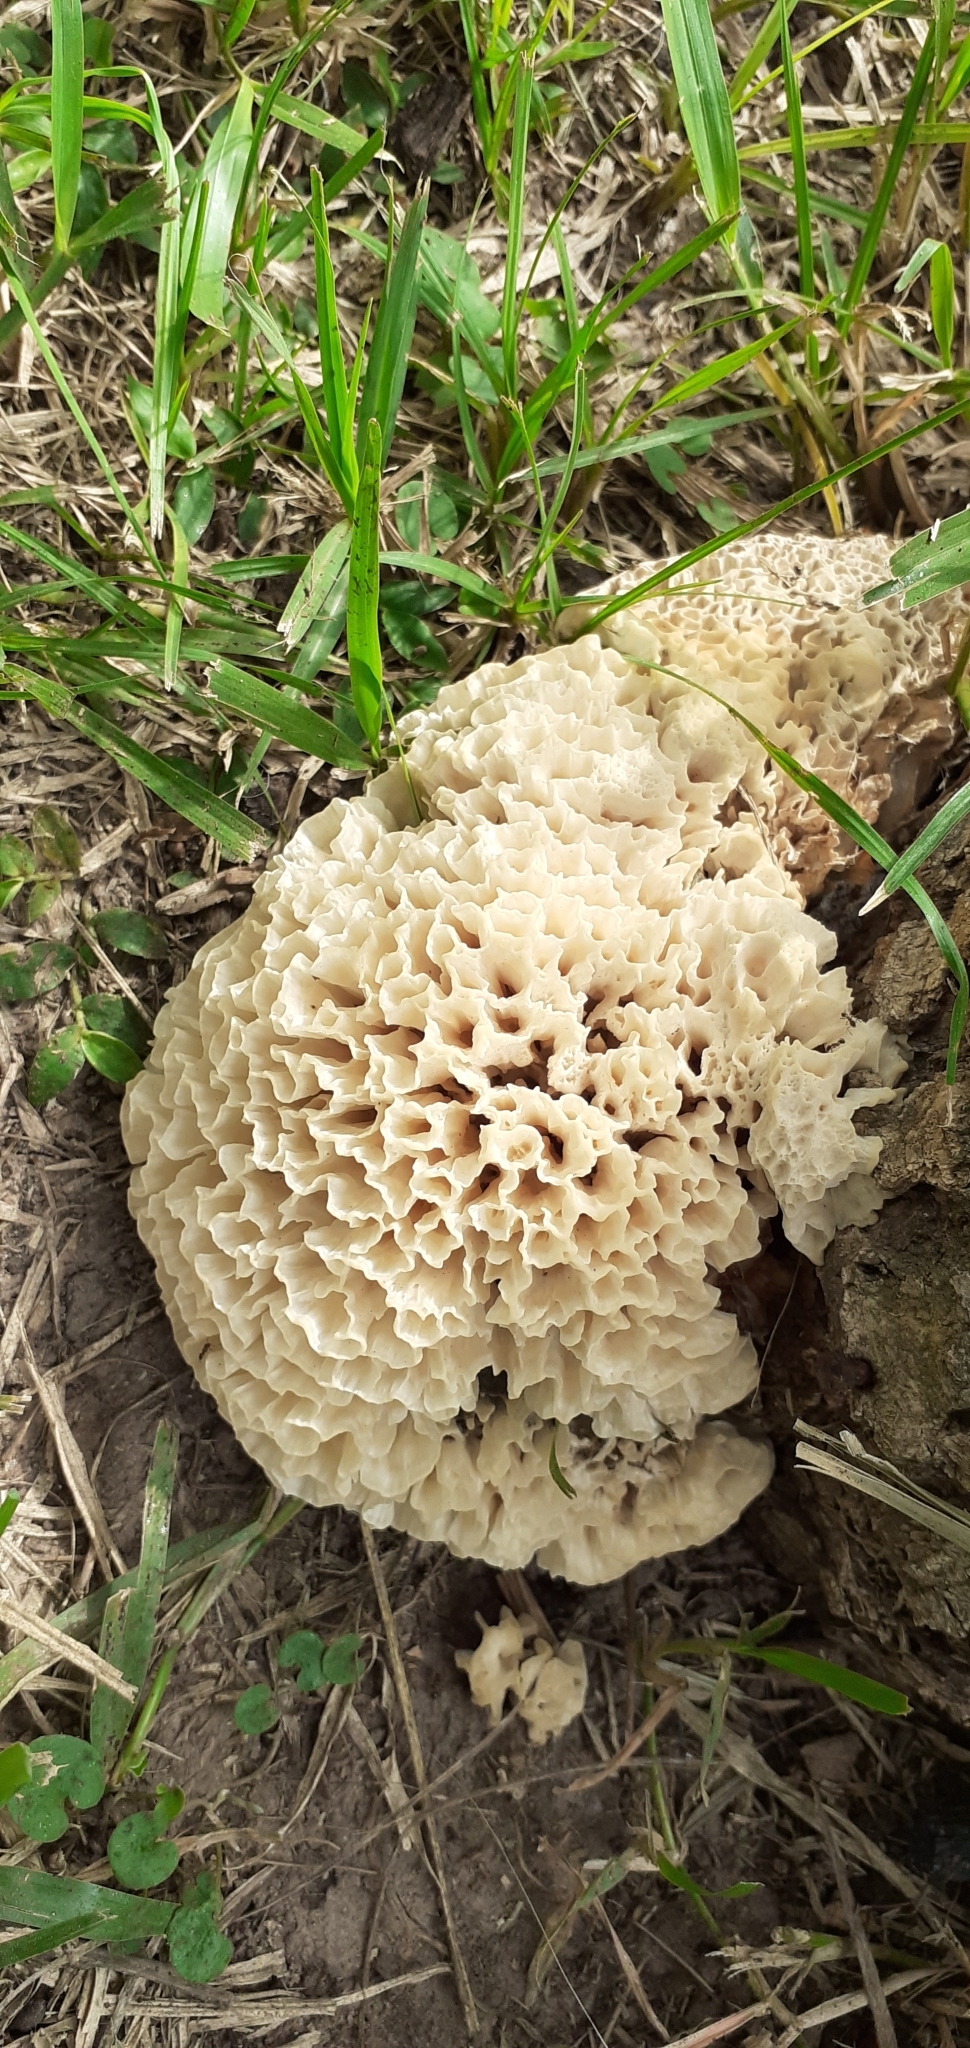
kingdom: Fungi
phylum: Basidiomycota
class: Agaricomycetes
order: Polyporales
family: Irpicaceae
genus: Irpex
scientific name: Irpex rosettiformis
